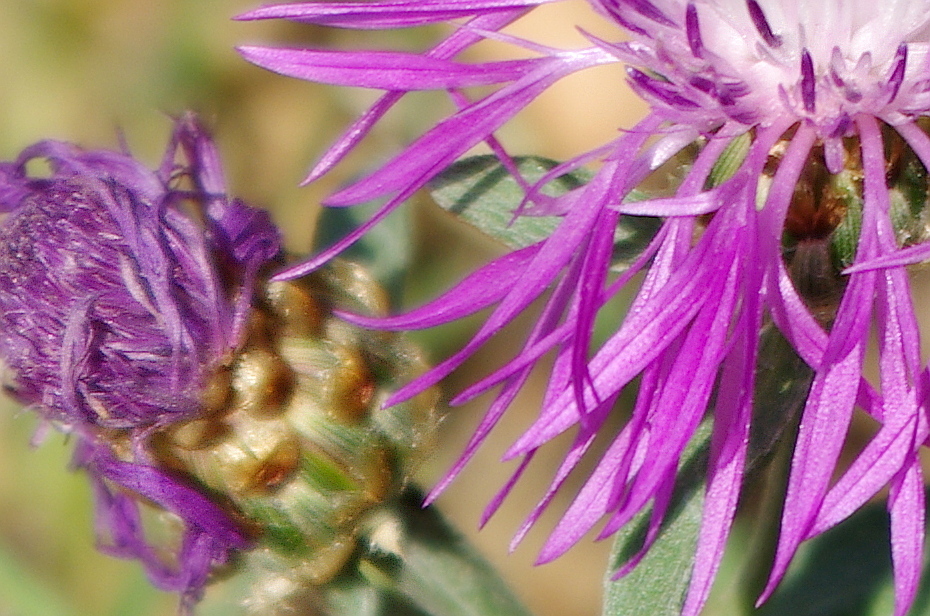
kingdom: Plantae
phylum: Tracheophyta
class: Magnoliopsida
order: Asterales
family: Asteraceae
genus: Centaurea
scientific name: Centaurea jacea
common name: Brown knapweed
